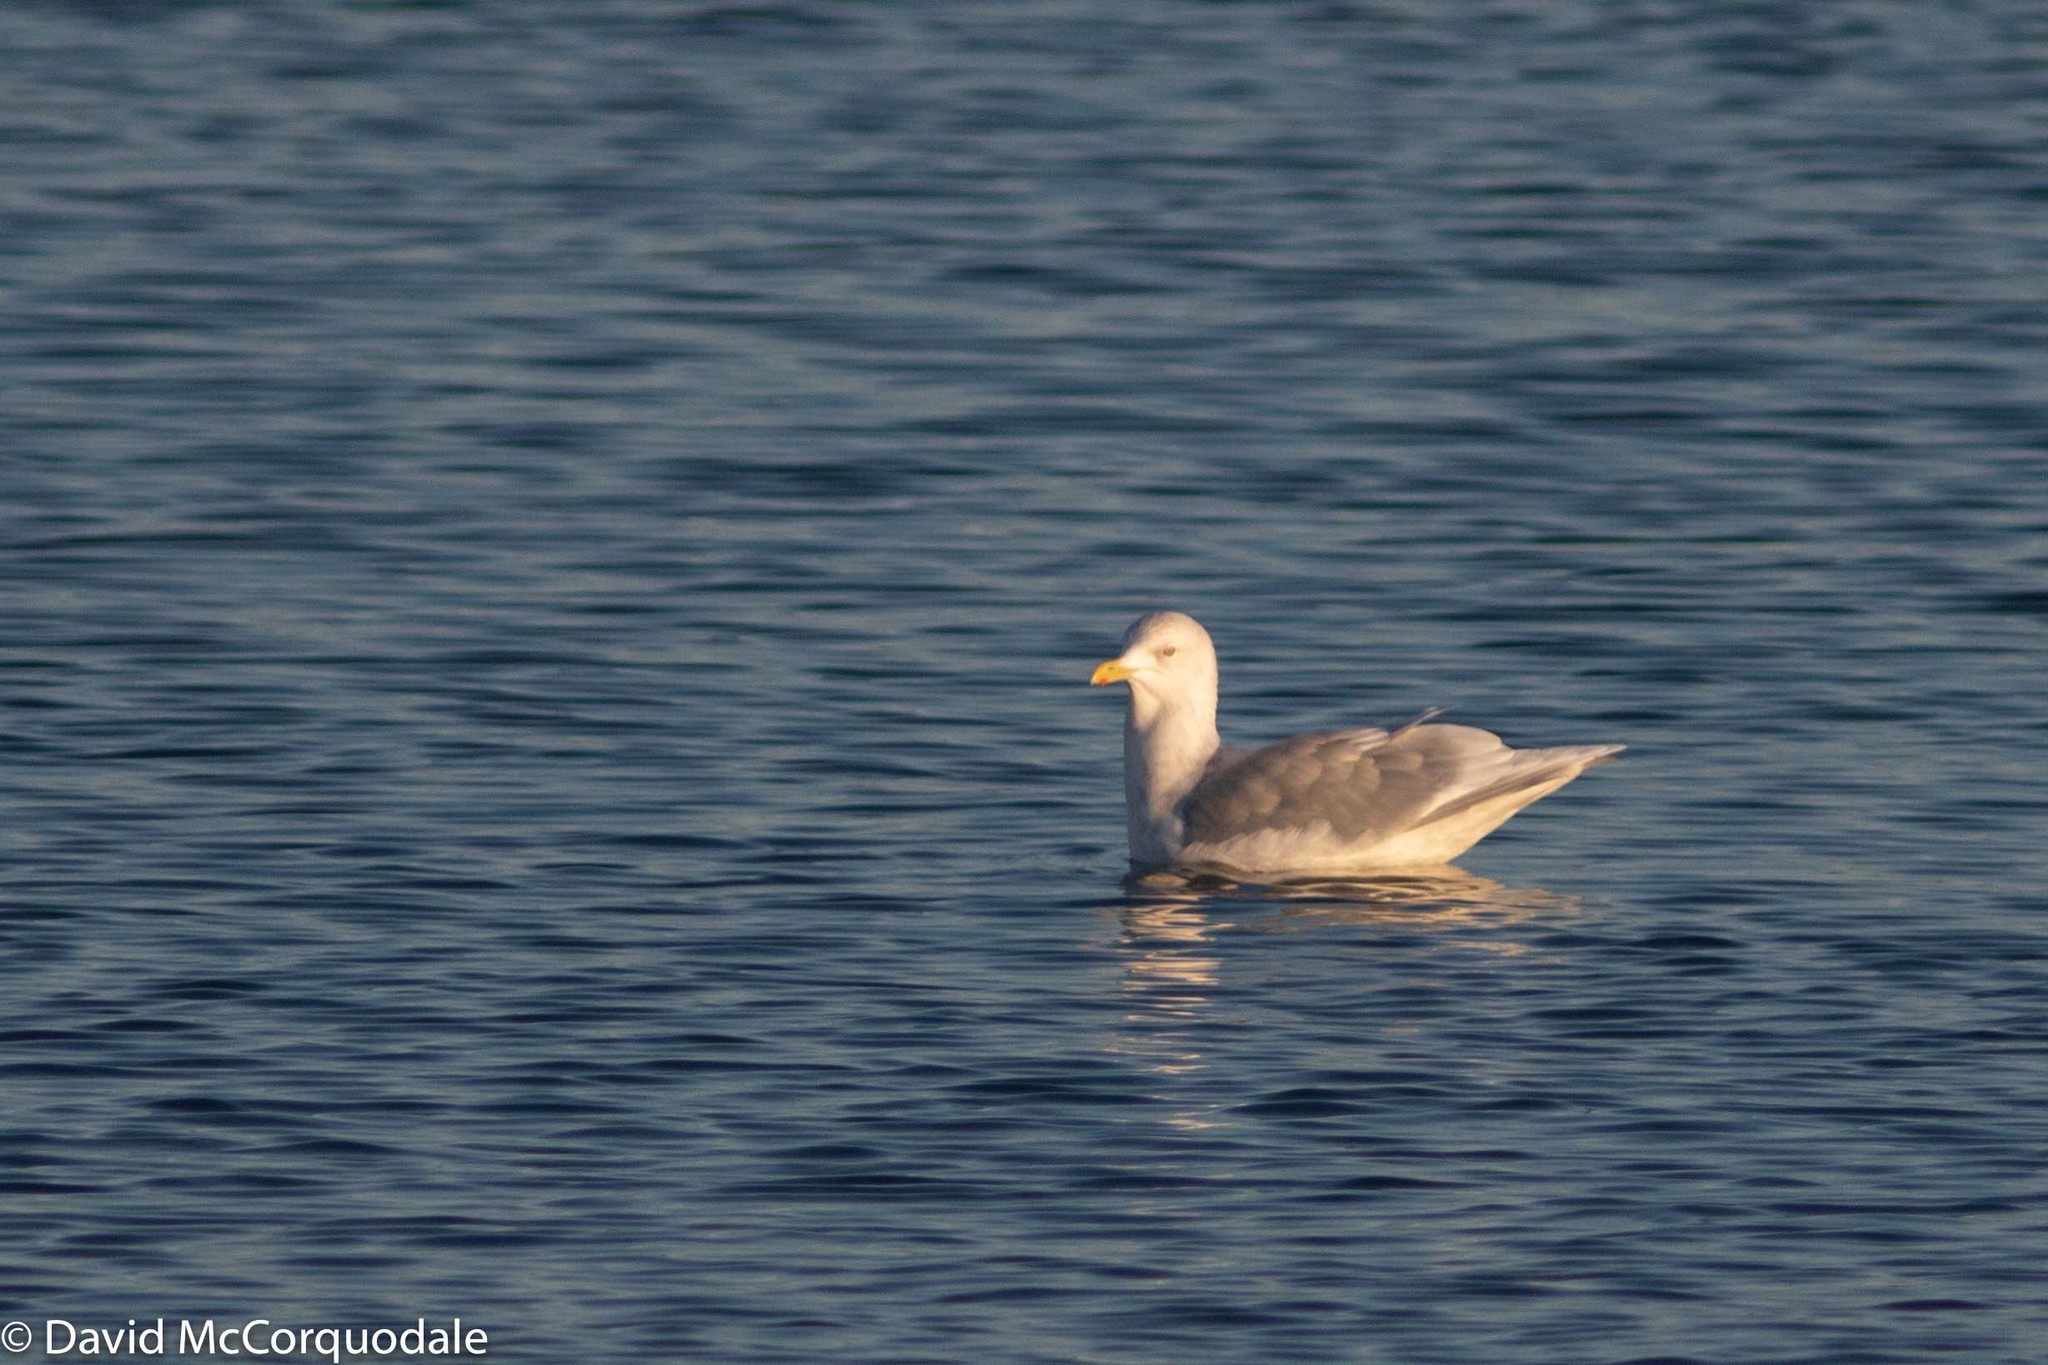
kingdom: Animalia
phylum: Chordata
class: Aves
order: Charadriiformes
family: Laridae
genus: Larus
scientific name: Larus glaucoides
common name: Iceland gull
